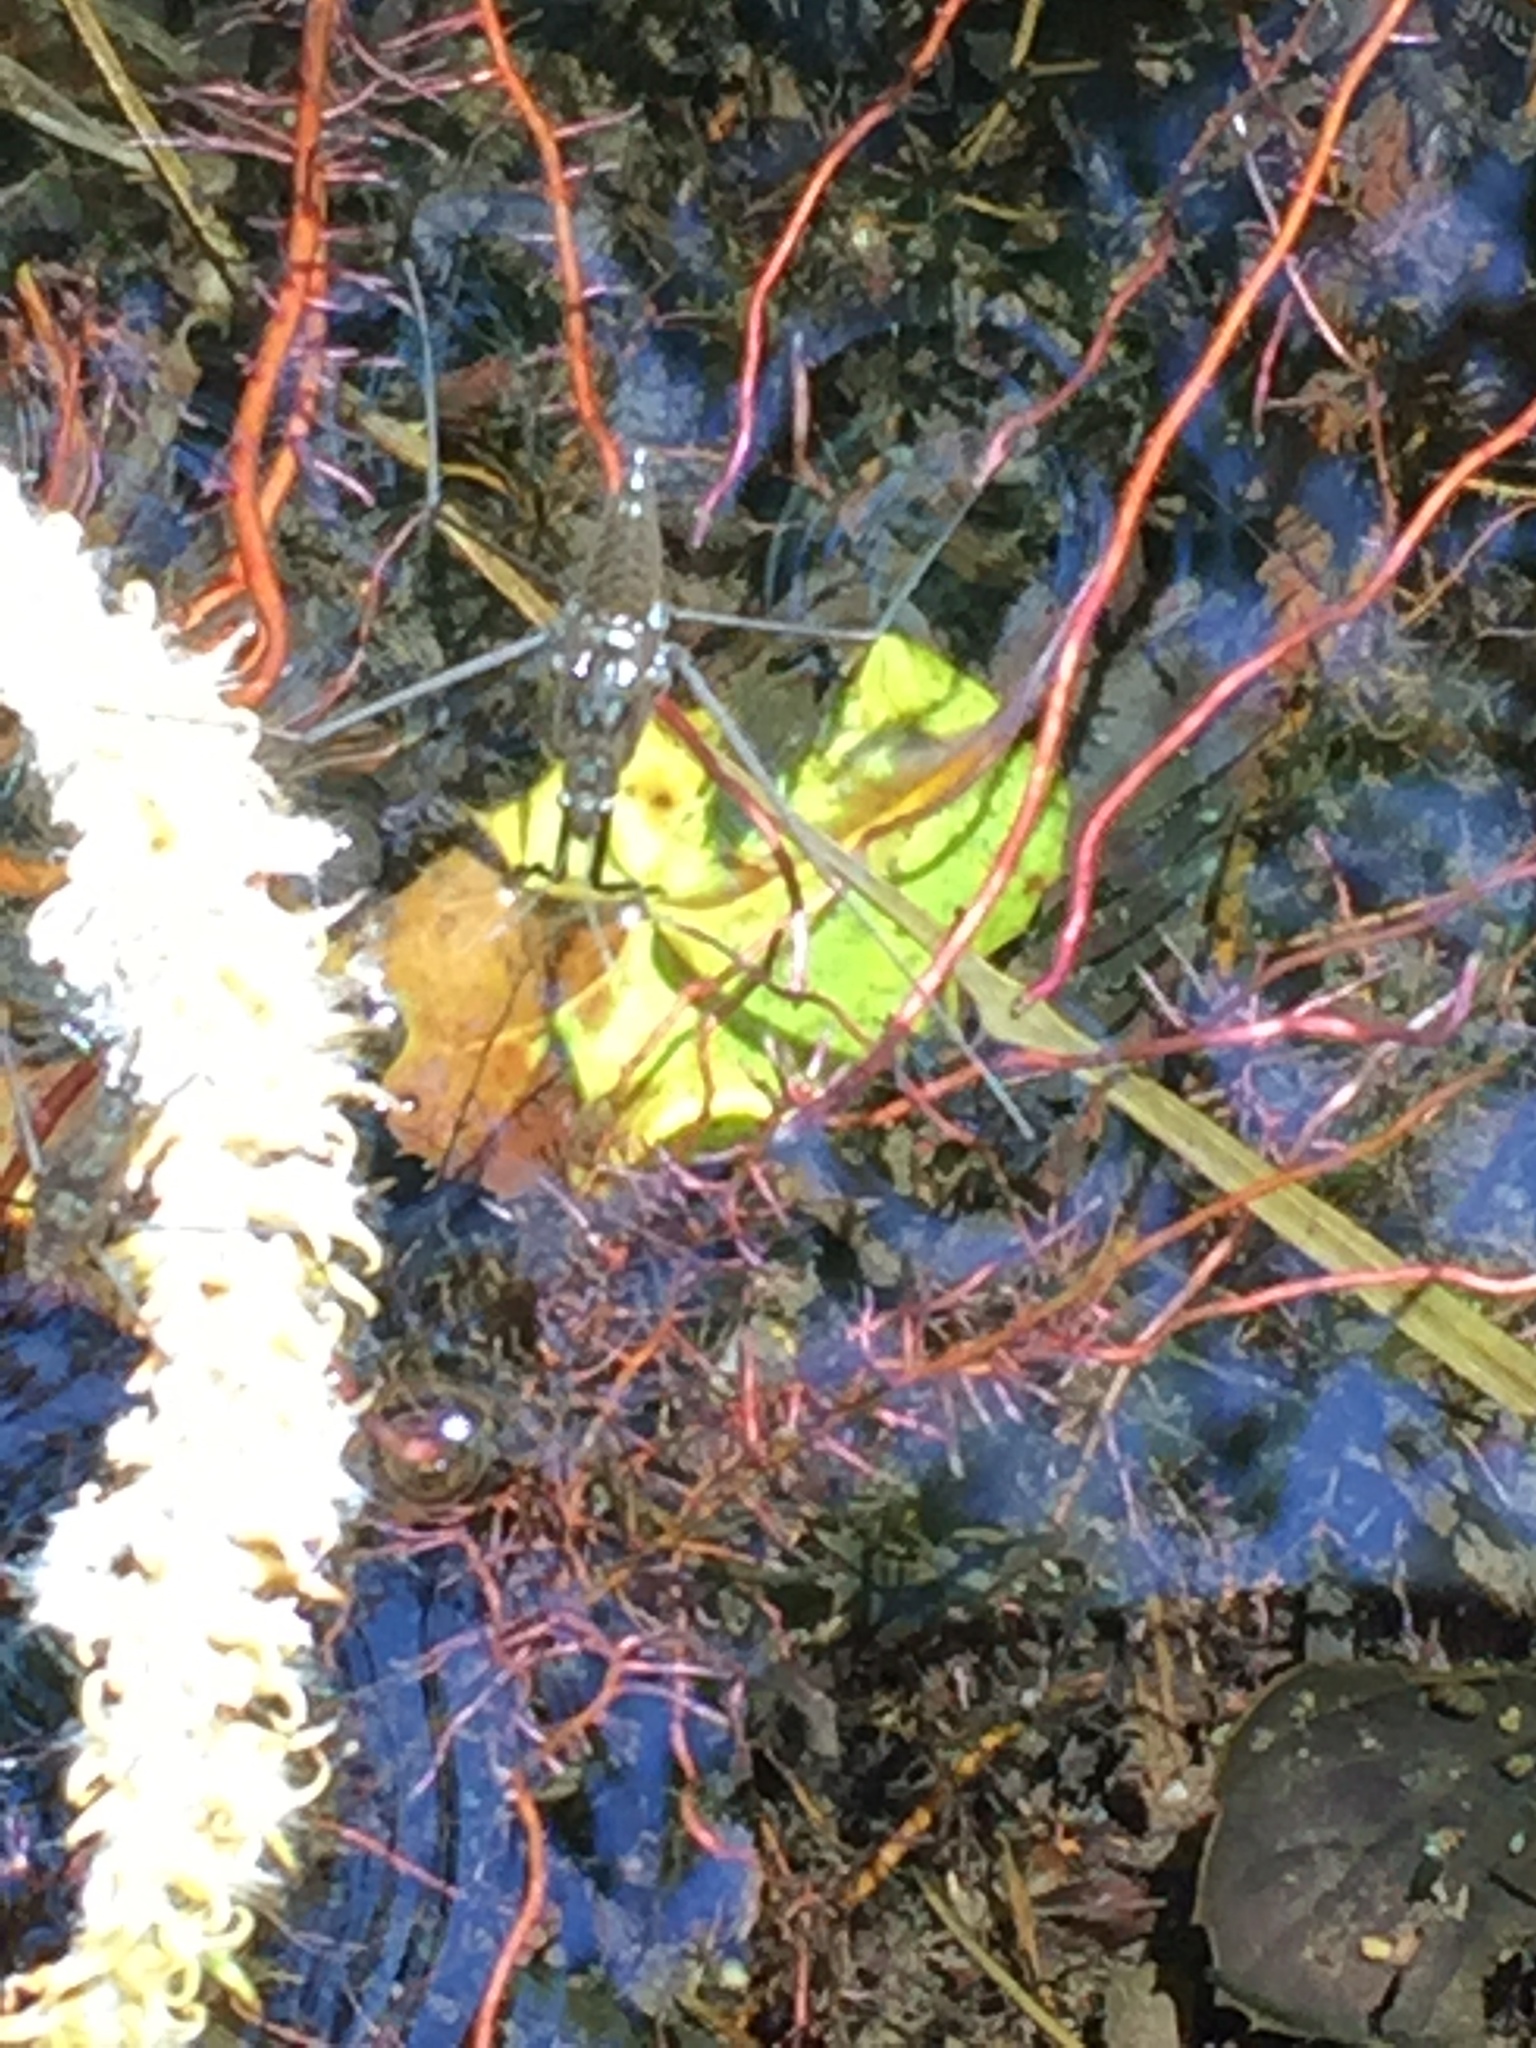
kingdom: Animalia
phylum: Arthropoda
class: Insecta
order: Hemiptera
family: Gerridae
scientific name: Gerridae
